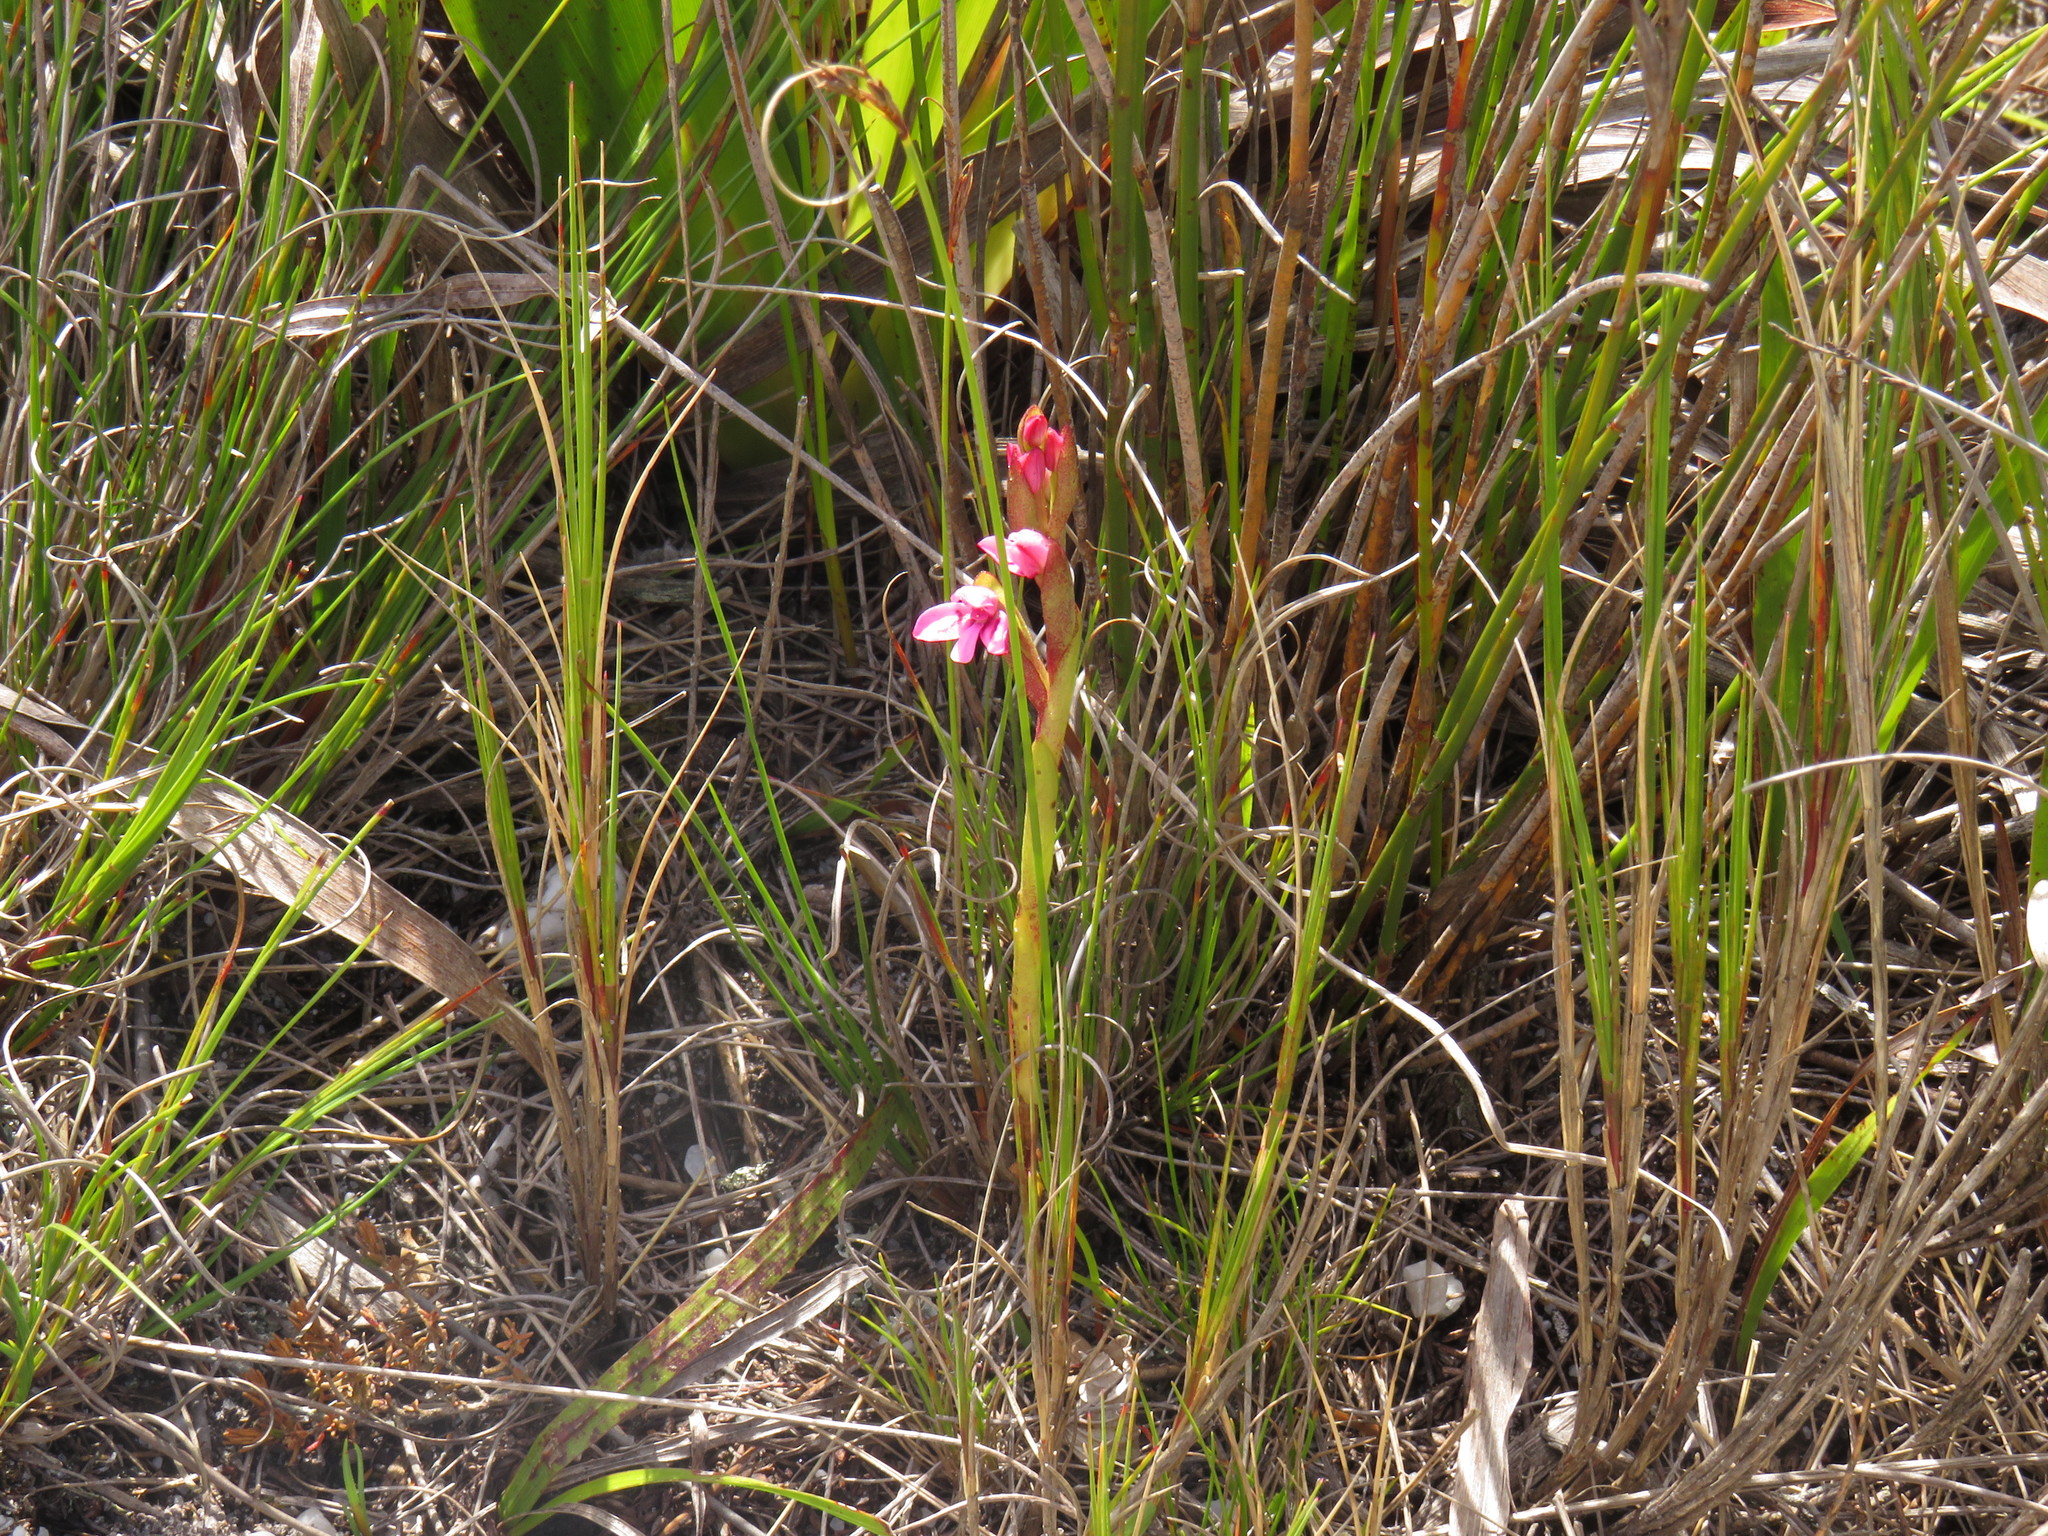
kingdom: Plantae
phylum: Tracheophyta
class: Liliopsida
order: Asparagales
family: Orchidaceae
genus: Disa
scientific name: Disa vaginata
